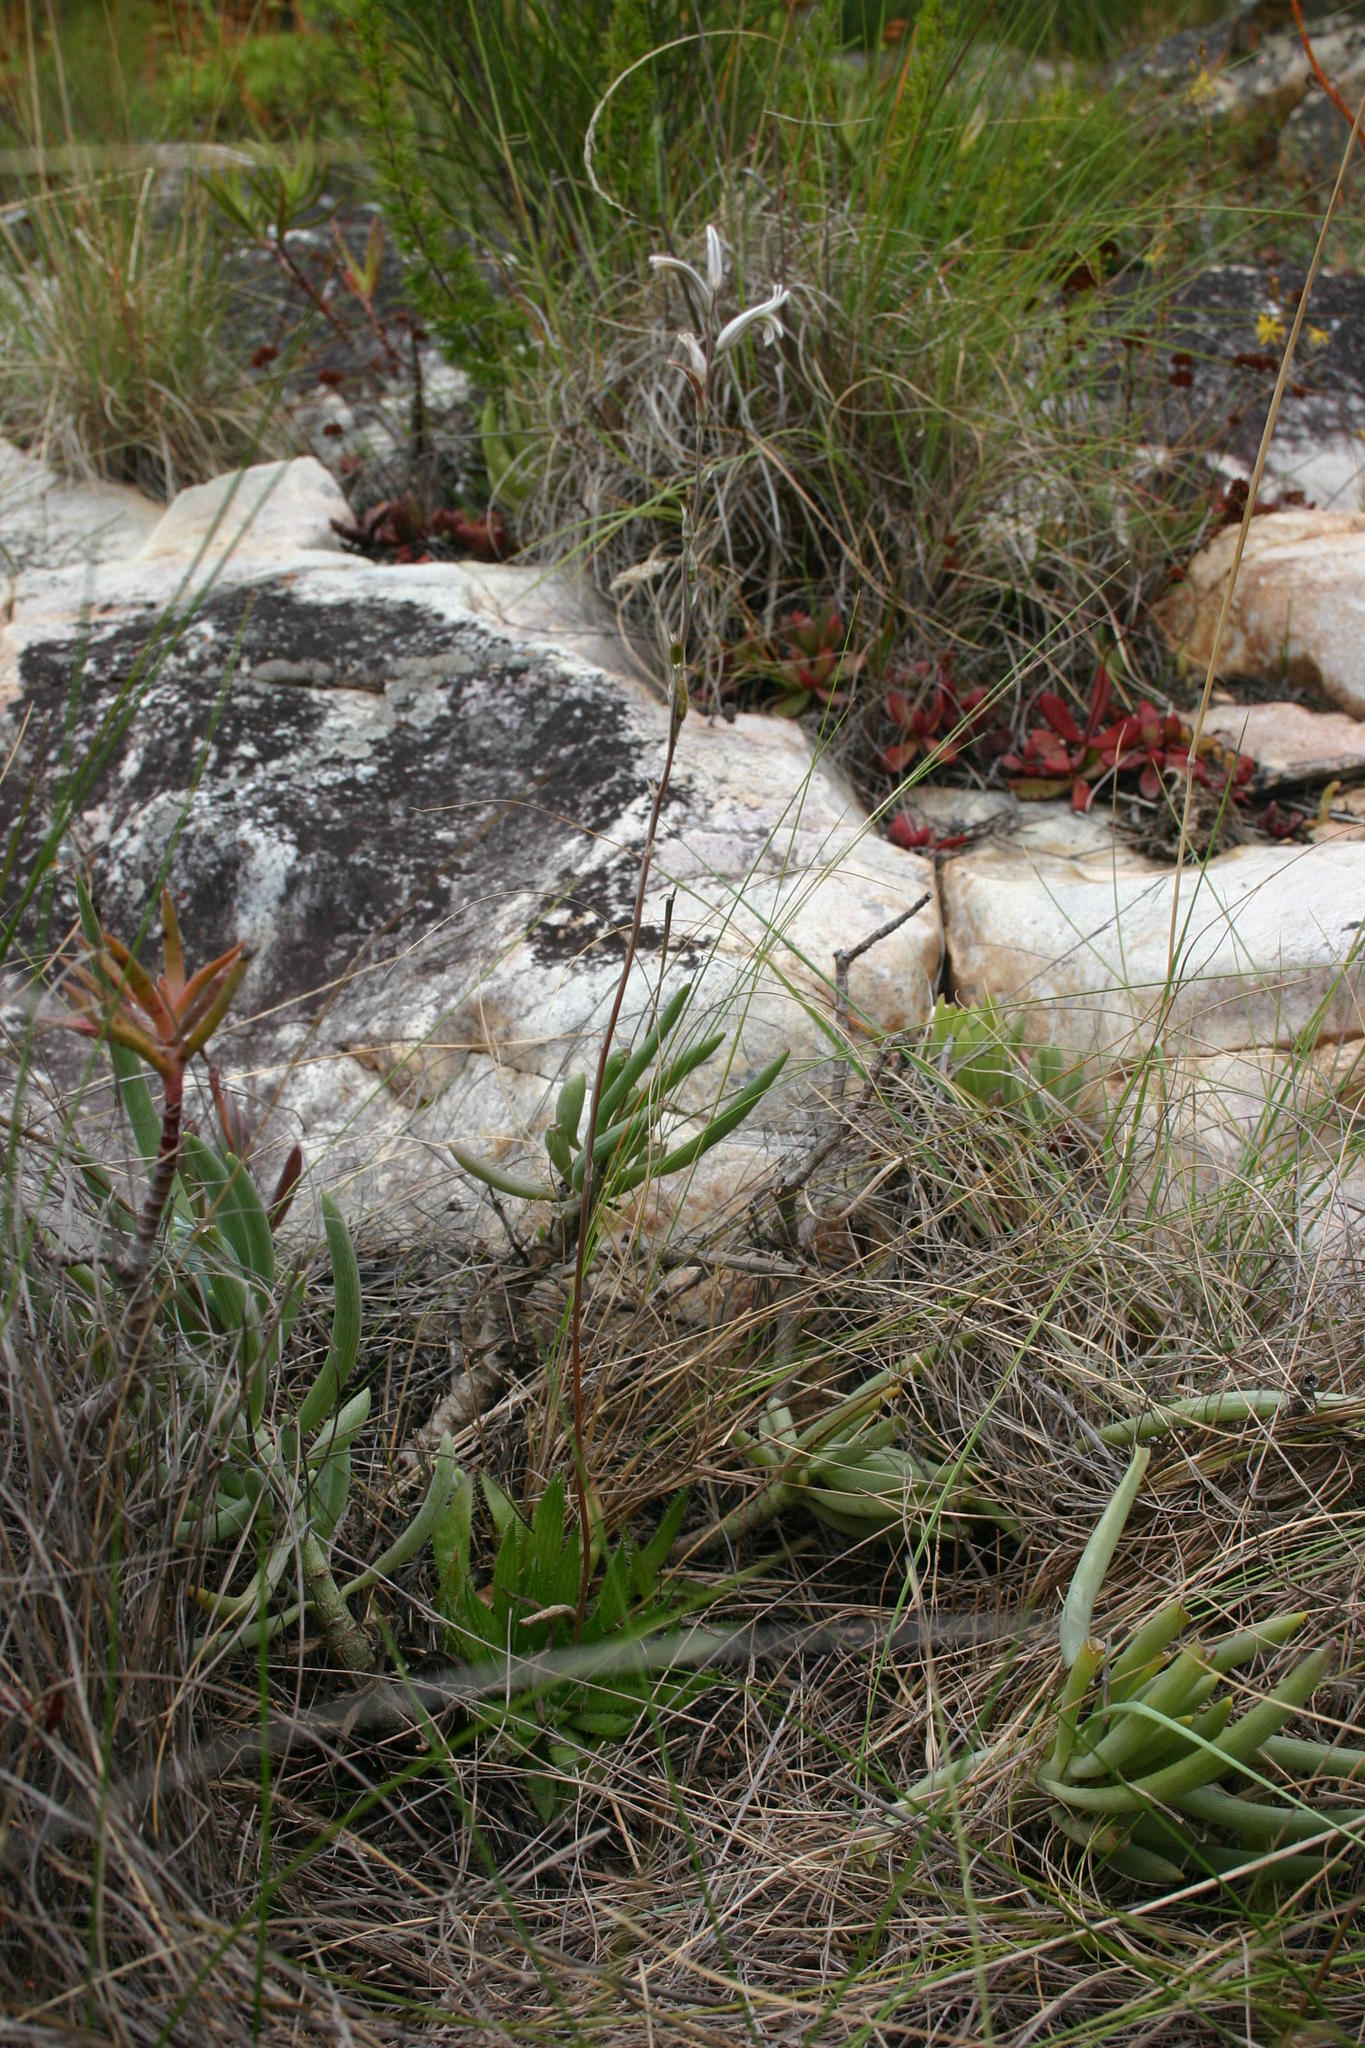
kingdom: Plantae
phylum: Tracheophyta
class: Liliopsida
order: Asparagales
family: Asphodelaceae
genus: Haworthia
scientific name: Haworthia arachnoidea
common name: Cobweb-aloe
